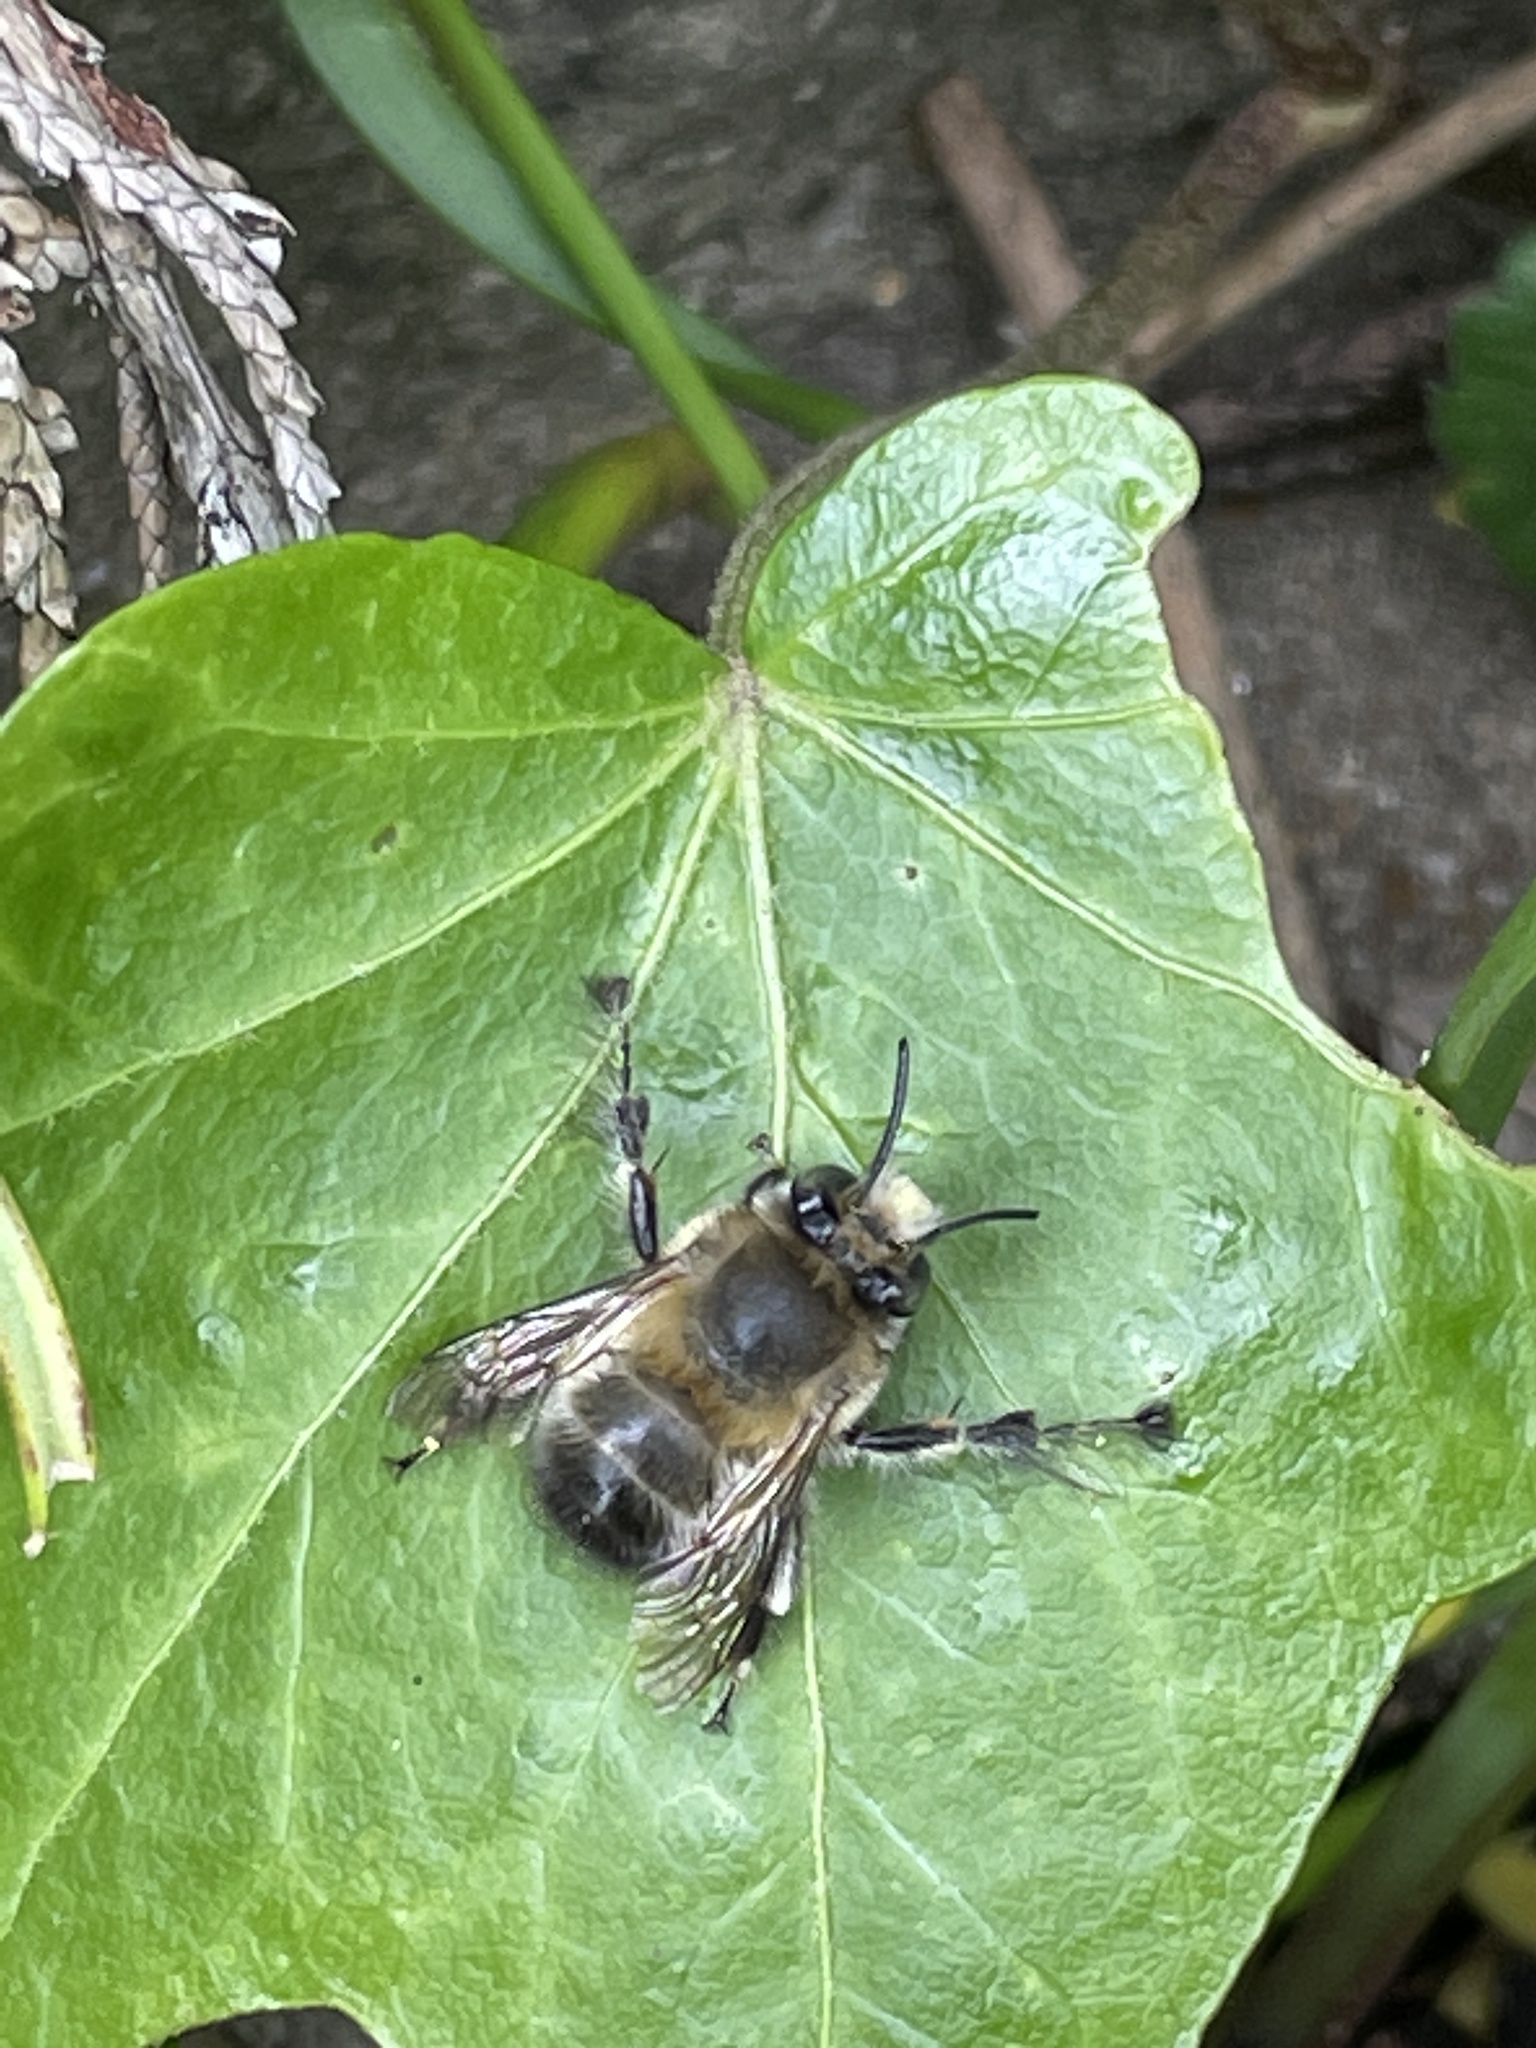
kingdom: Animalia
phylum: Arthropoda
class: Insecta
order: Hymenoptera
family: Apidae
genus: Anthophora
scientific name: Anthophora plumipes
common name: Hairy-footed flower bee
